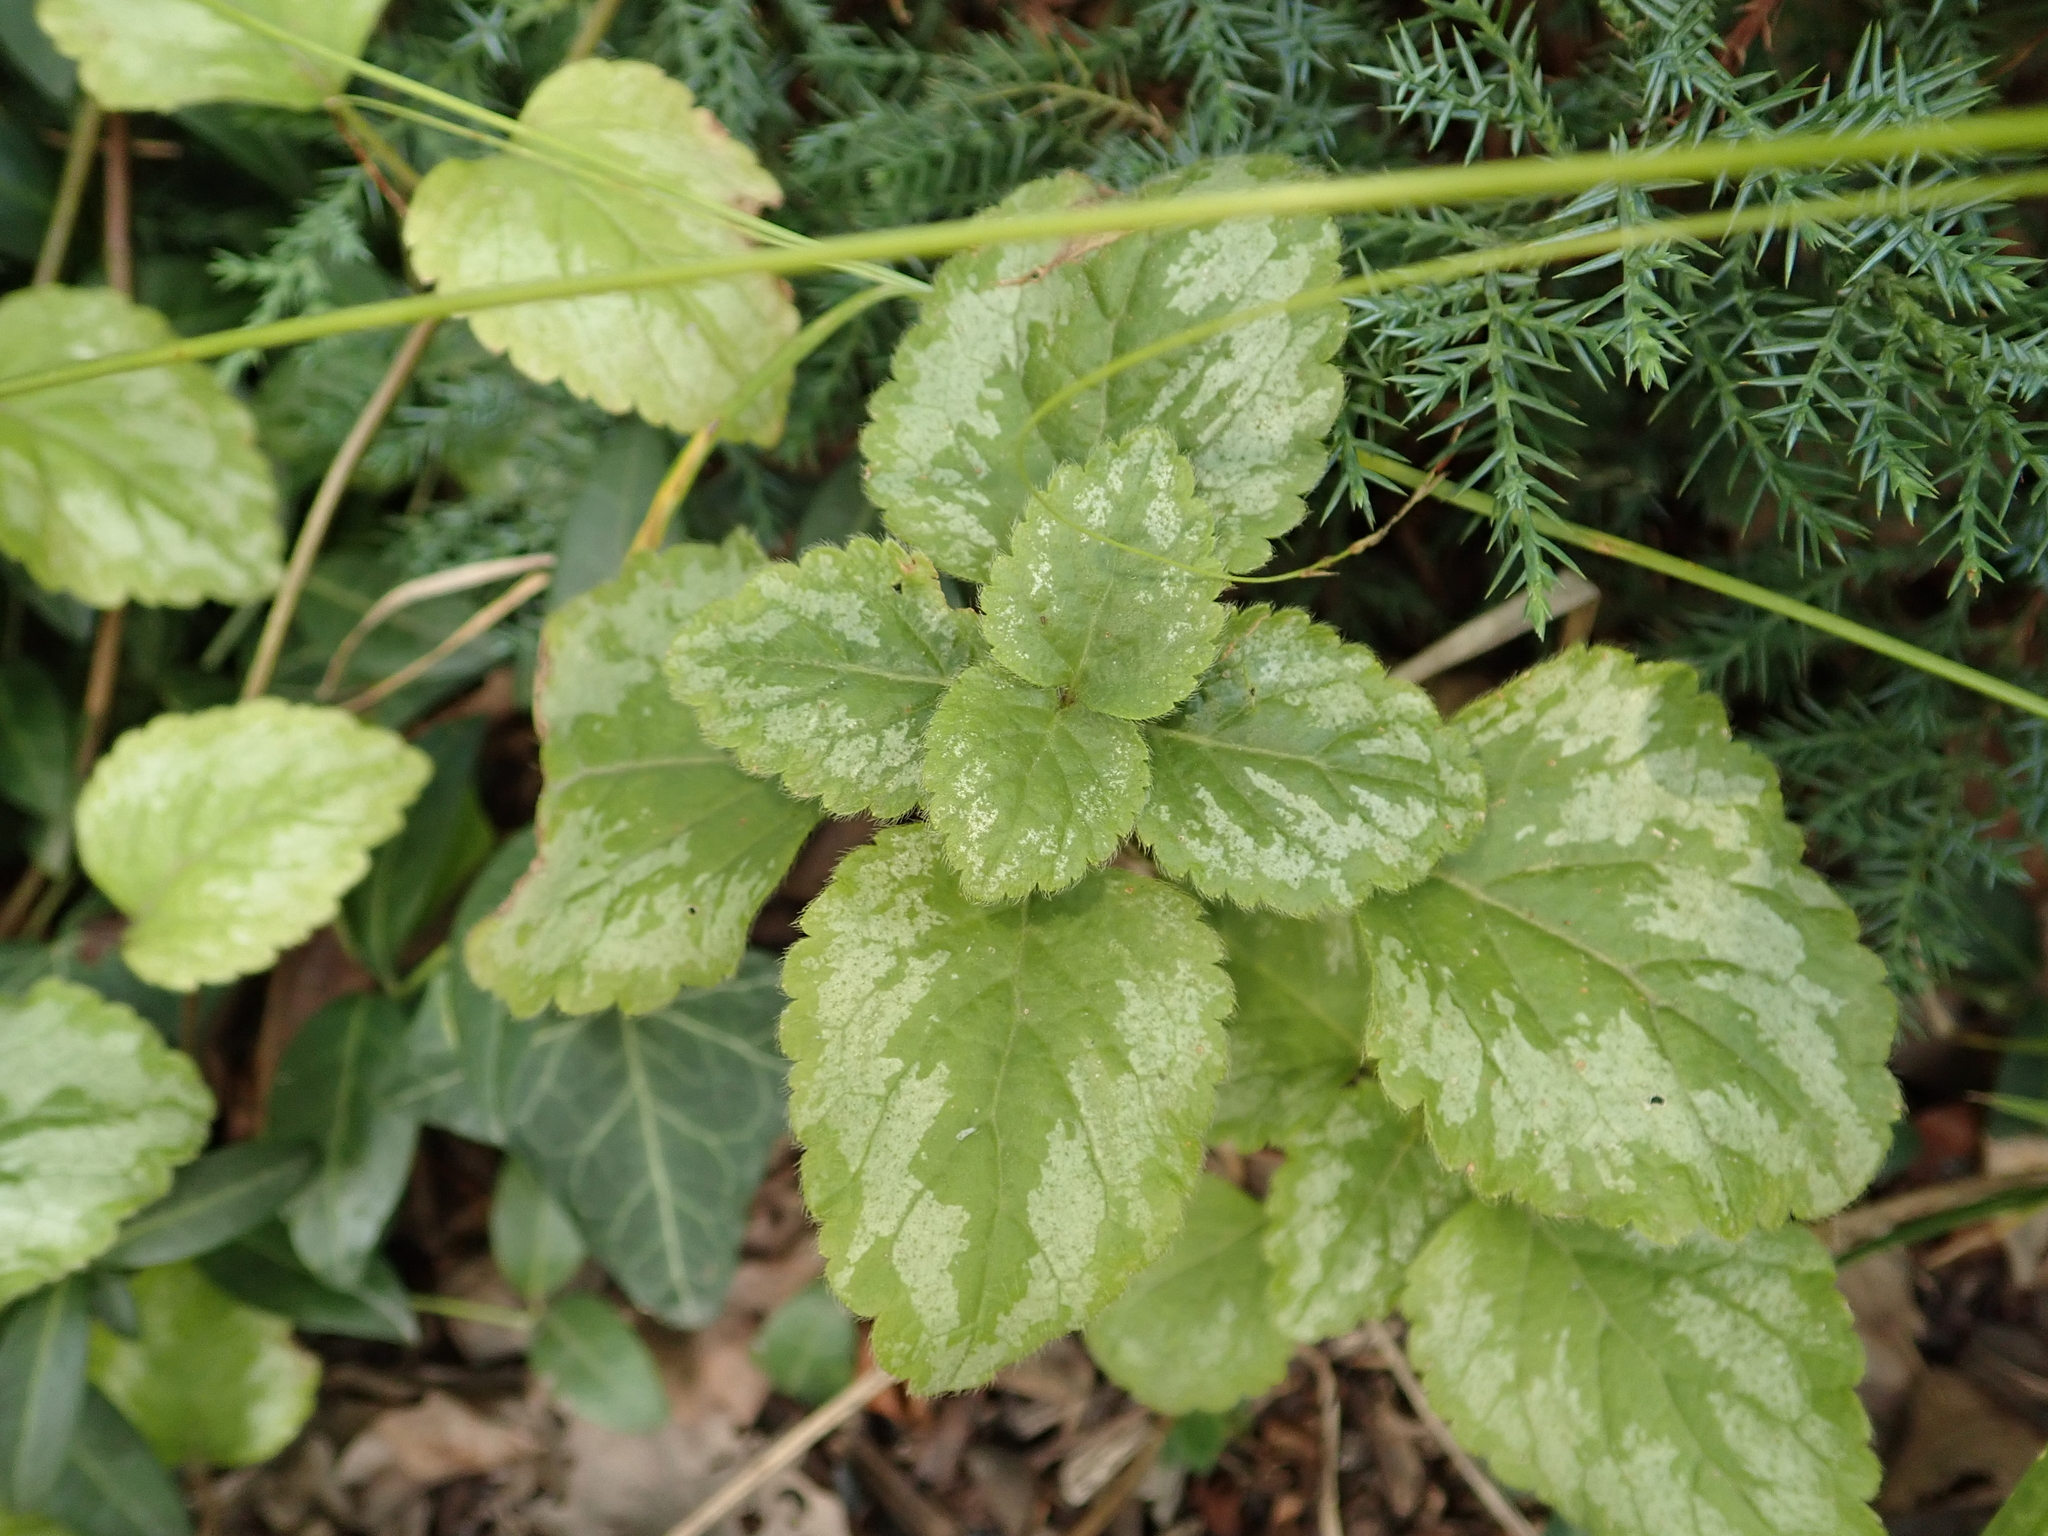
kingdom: Plantae
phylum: Tracheophyta
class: Magnoliopsida
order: Lamiales
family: Lamiaceae
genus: Lamium
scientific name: Lamium galeobdolon
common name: Yellow archangel
